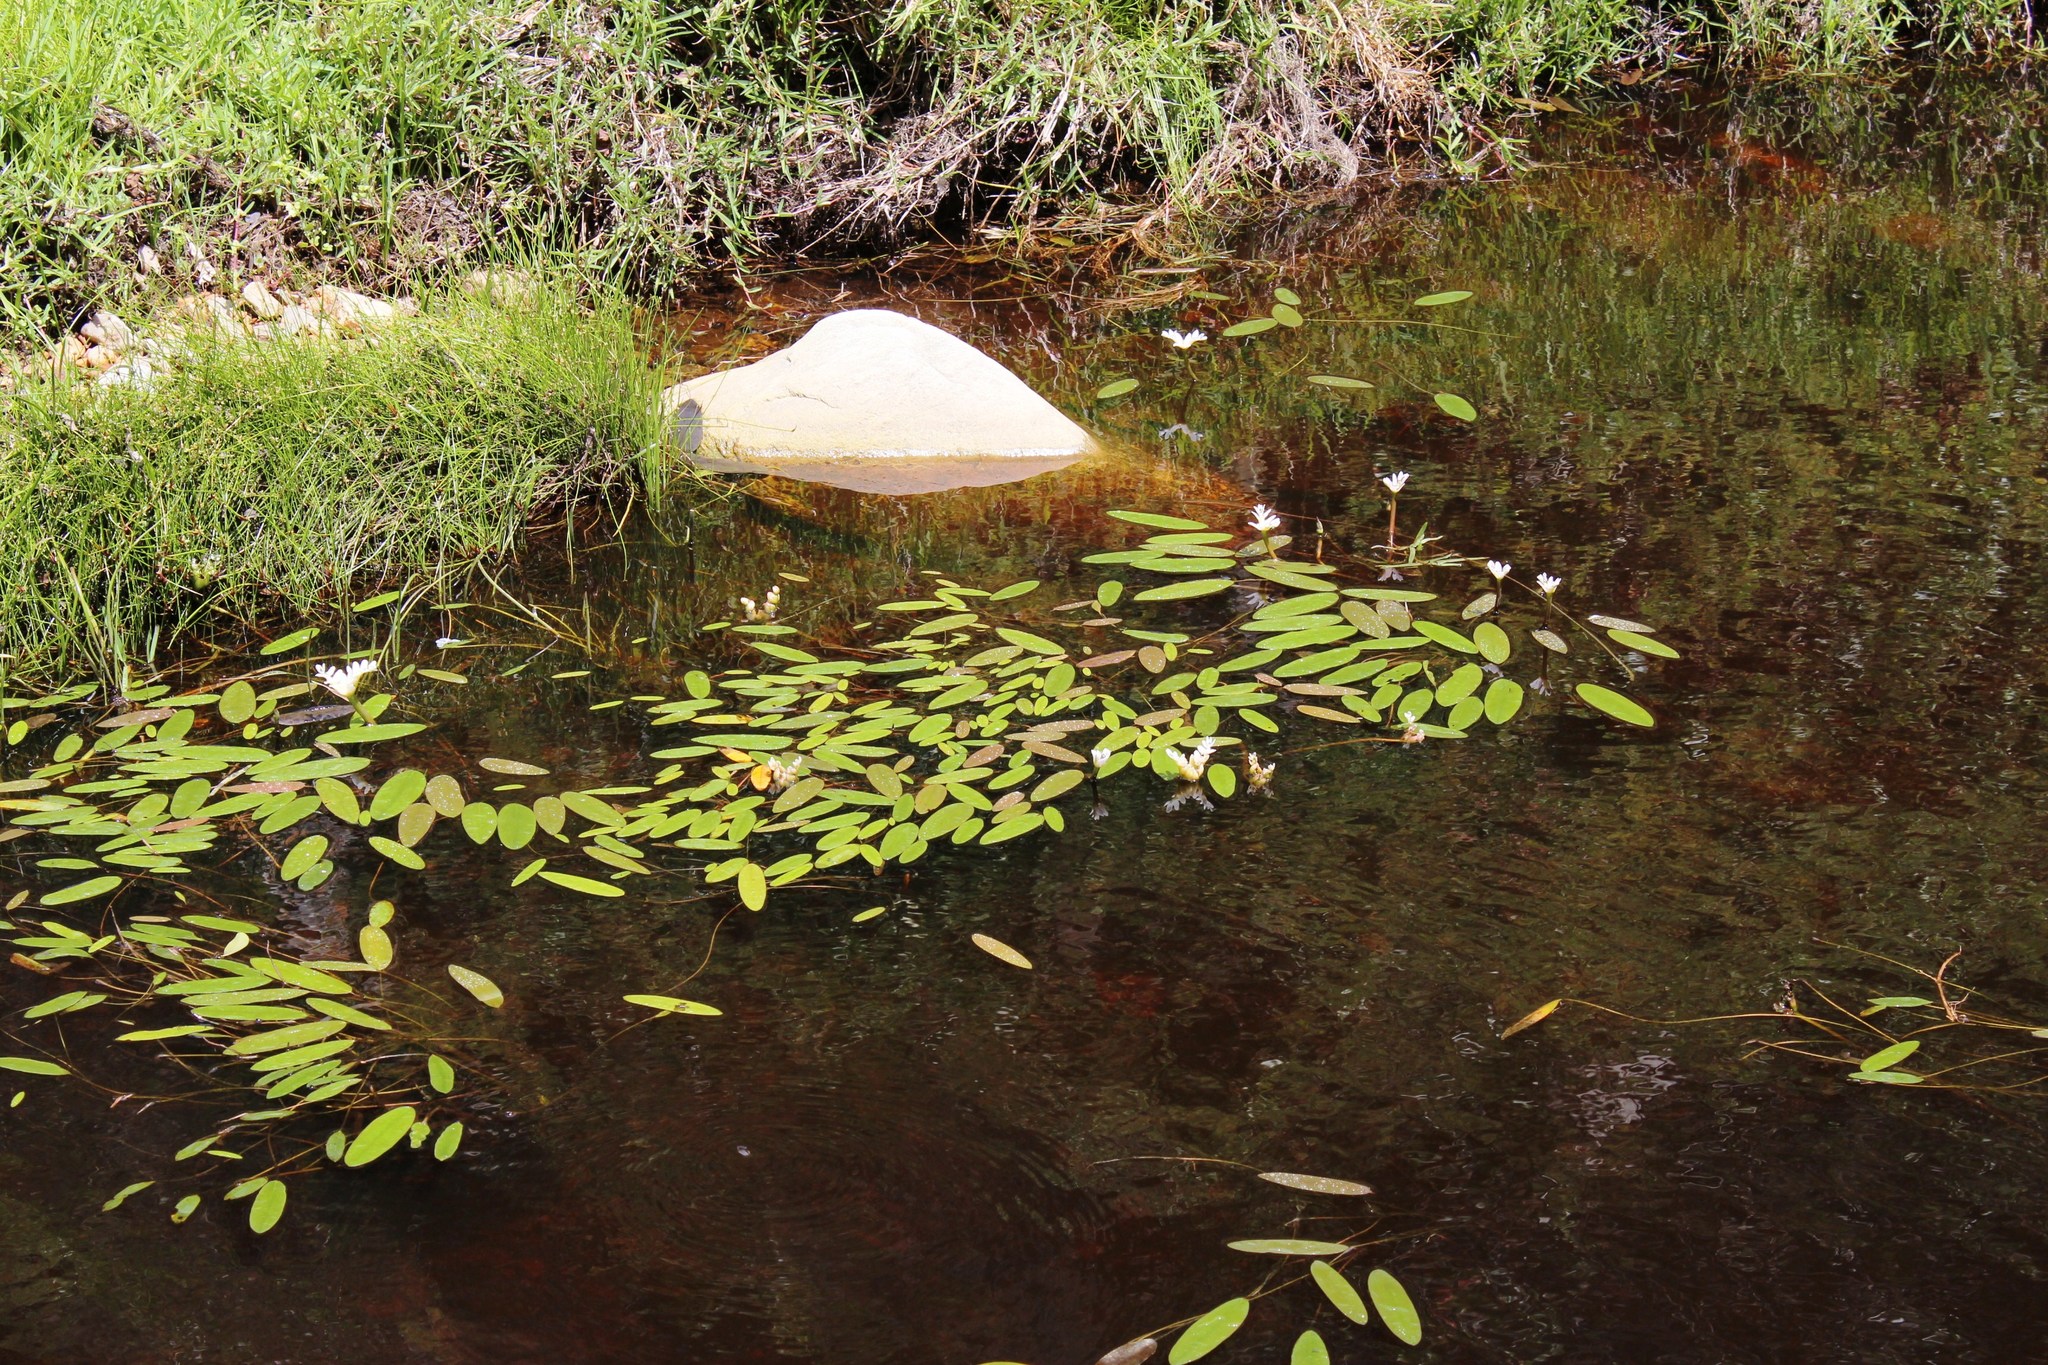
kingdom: Plantae
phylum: Tracheophyta
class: Liliopsida
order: Alismatales
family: Aponogetonaceae
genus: Aponogeton
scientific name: Aponogeton distachyos
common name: Cape-pondweed
